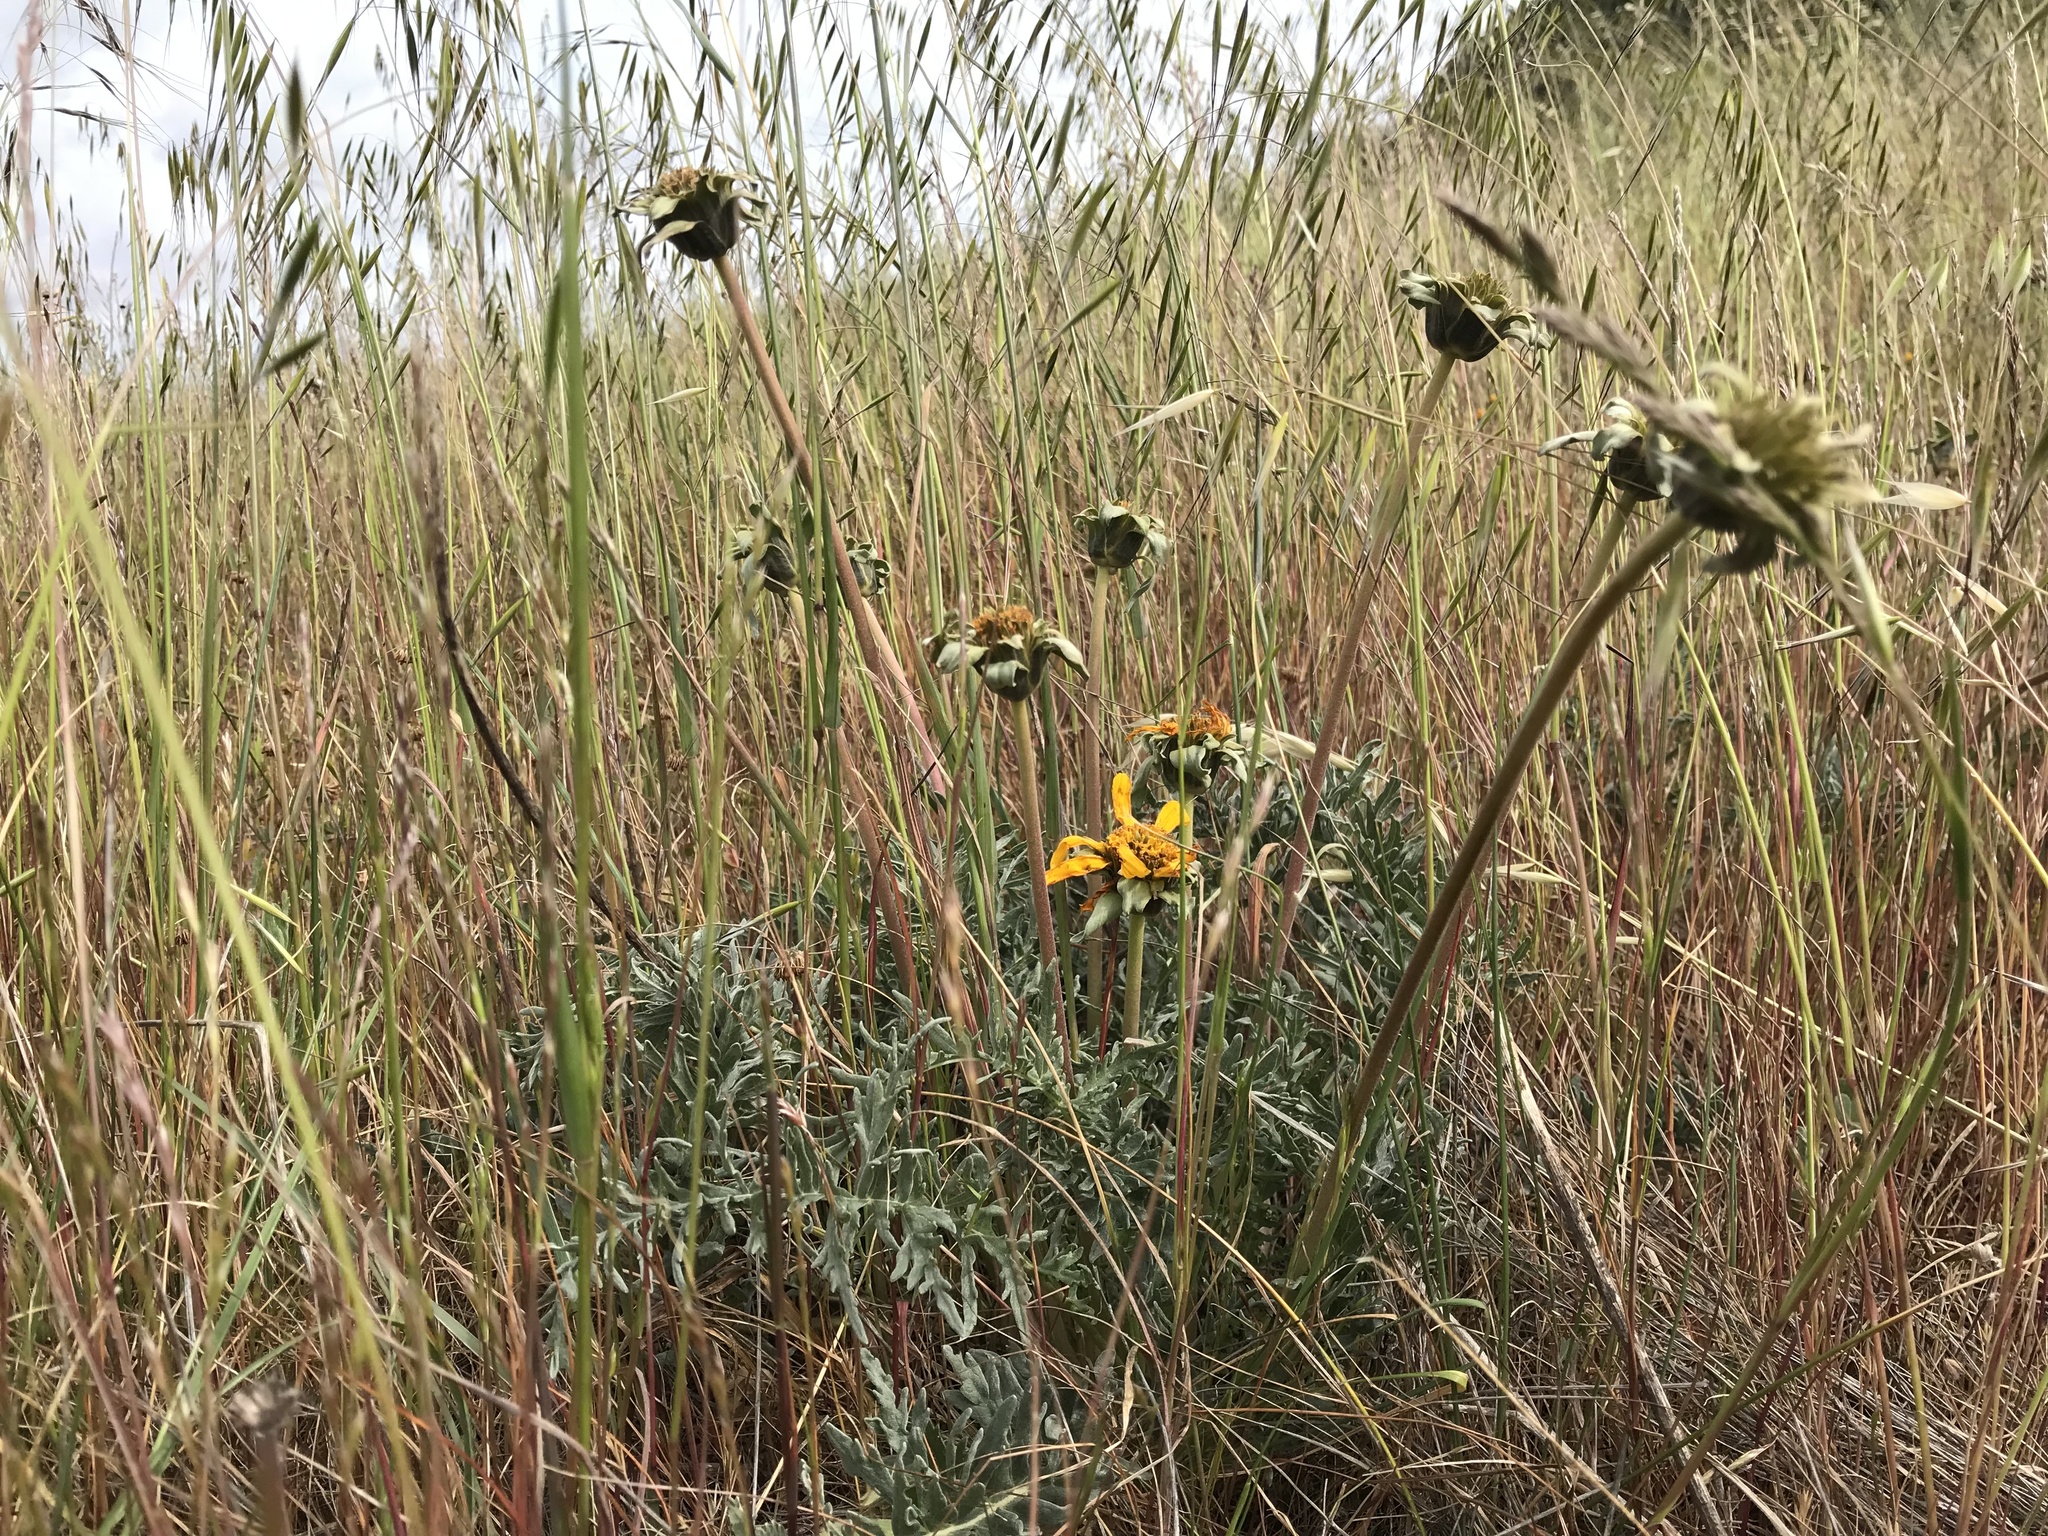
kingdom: Plantae
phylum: Tracheophyta
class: Magnoliopsida
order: Asterales
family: Asteraceae
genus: Balsamorhiza
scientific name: Balsamorhiza macrolepis
